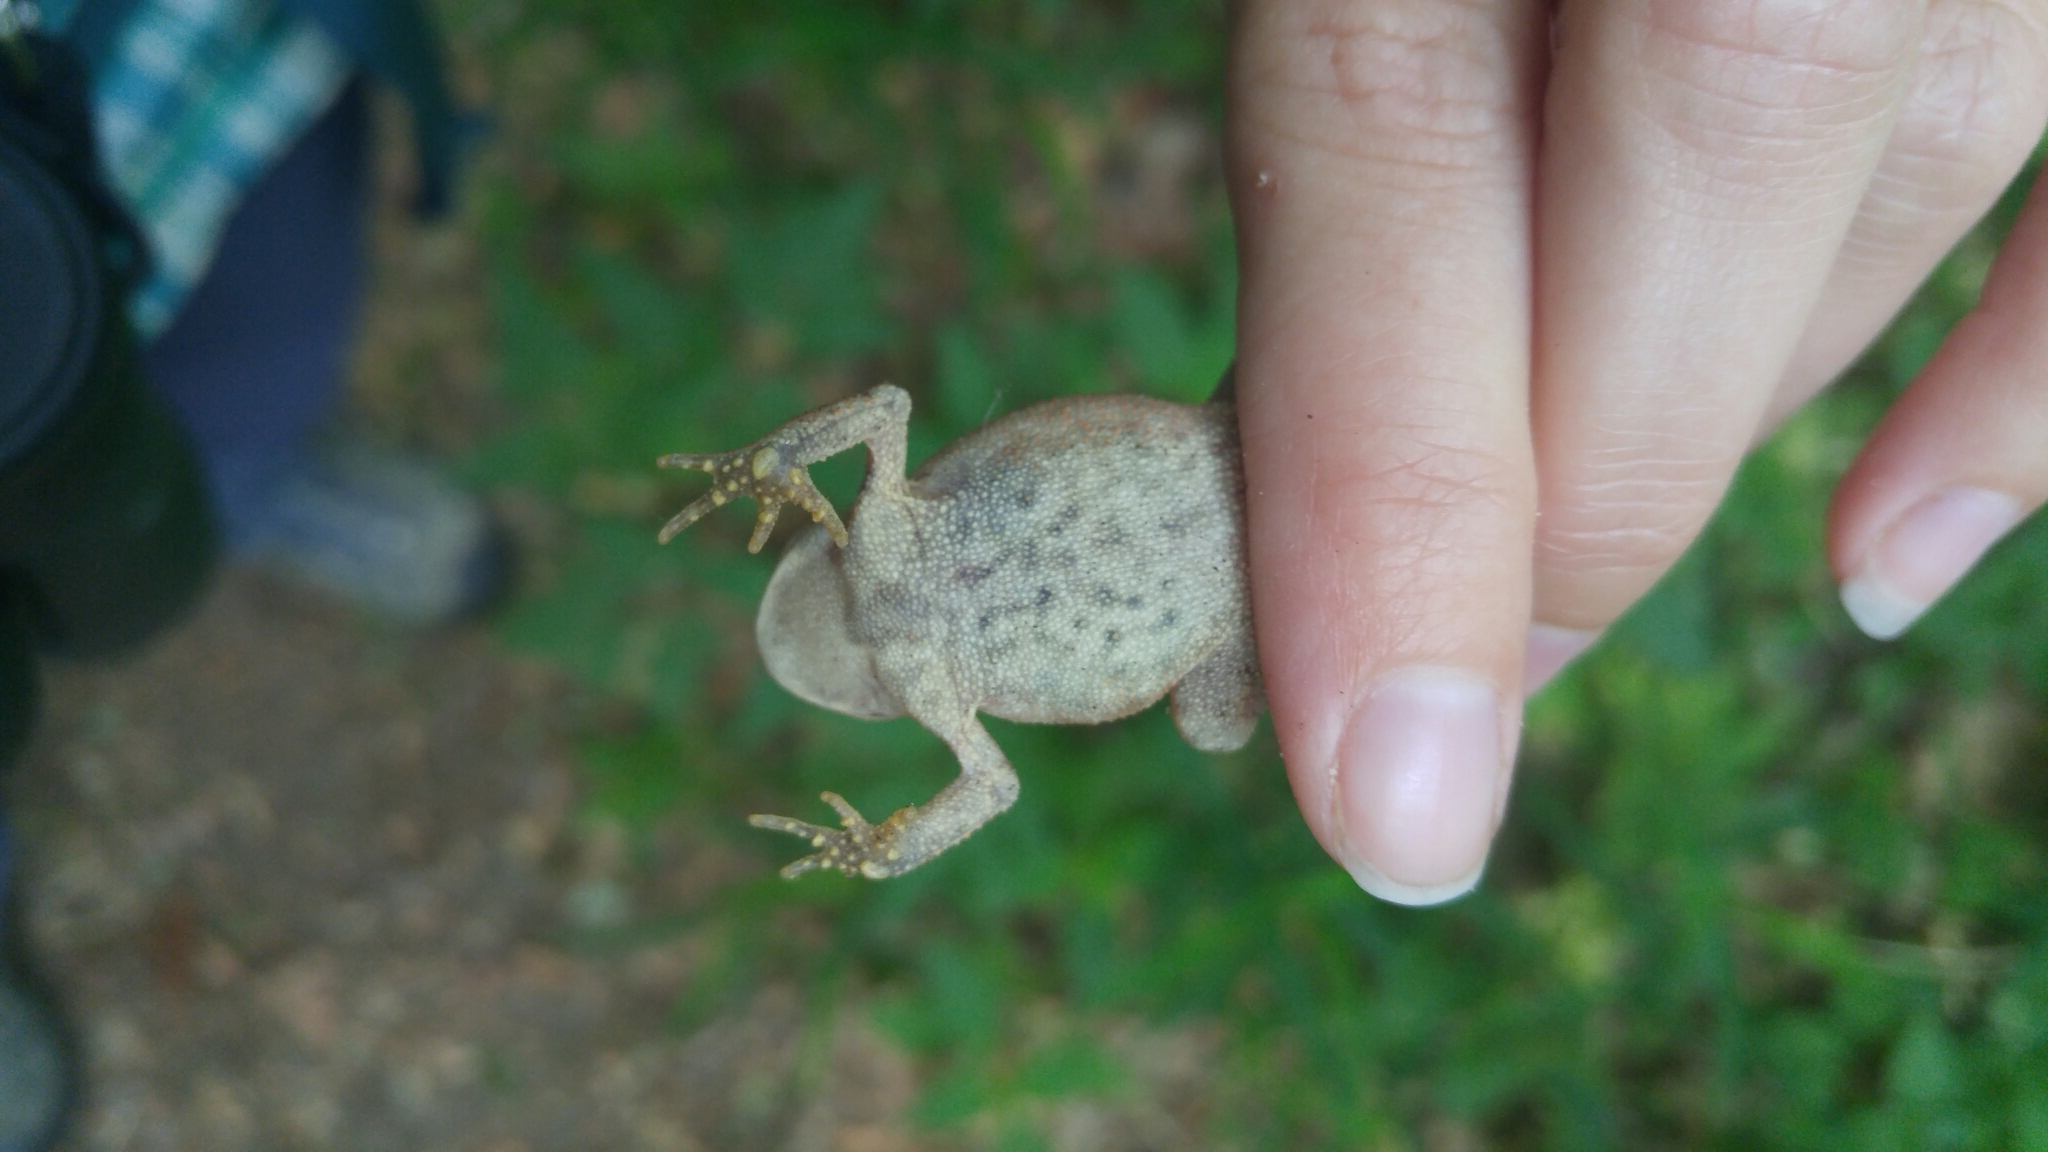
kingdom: Animalia
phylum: Chordata
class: Amphibia
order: Anura
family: Bufonidae
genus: Anaxyrus
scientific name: Anaxyrus americanus
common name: American toad
